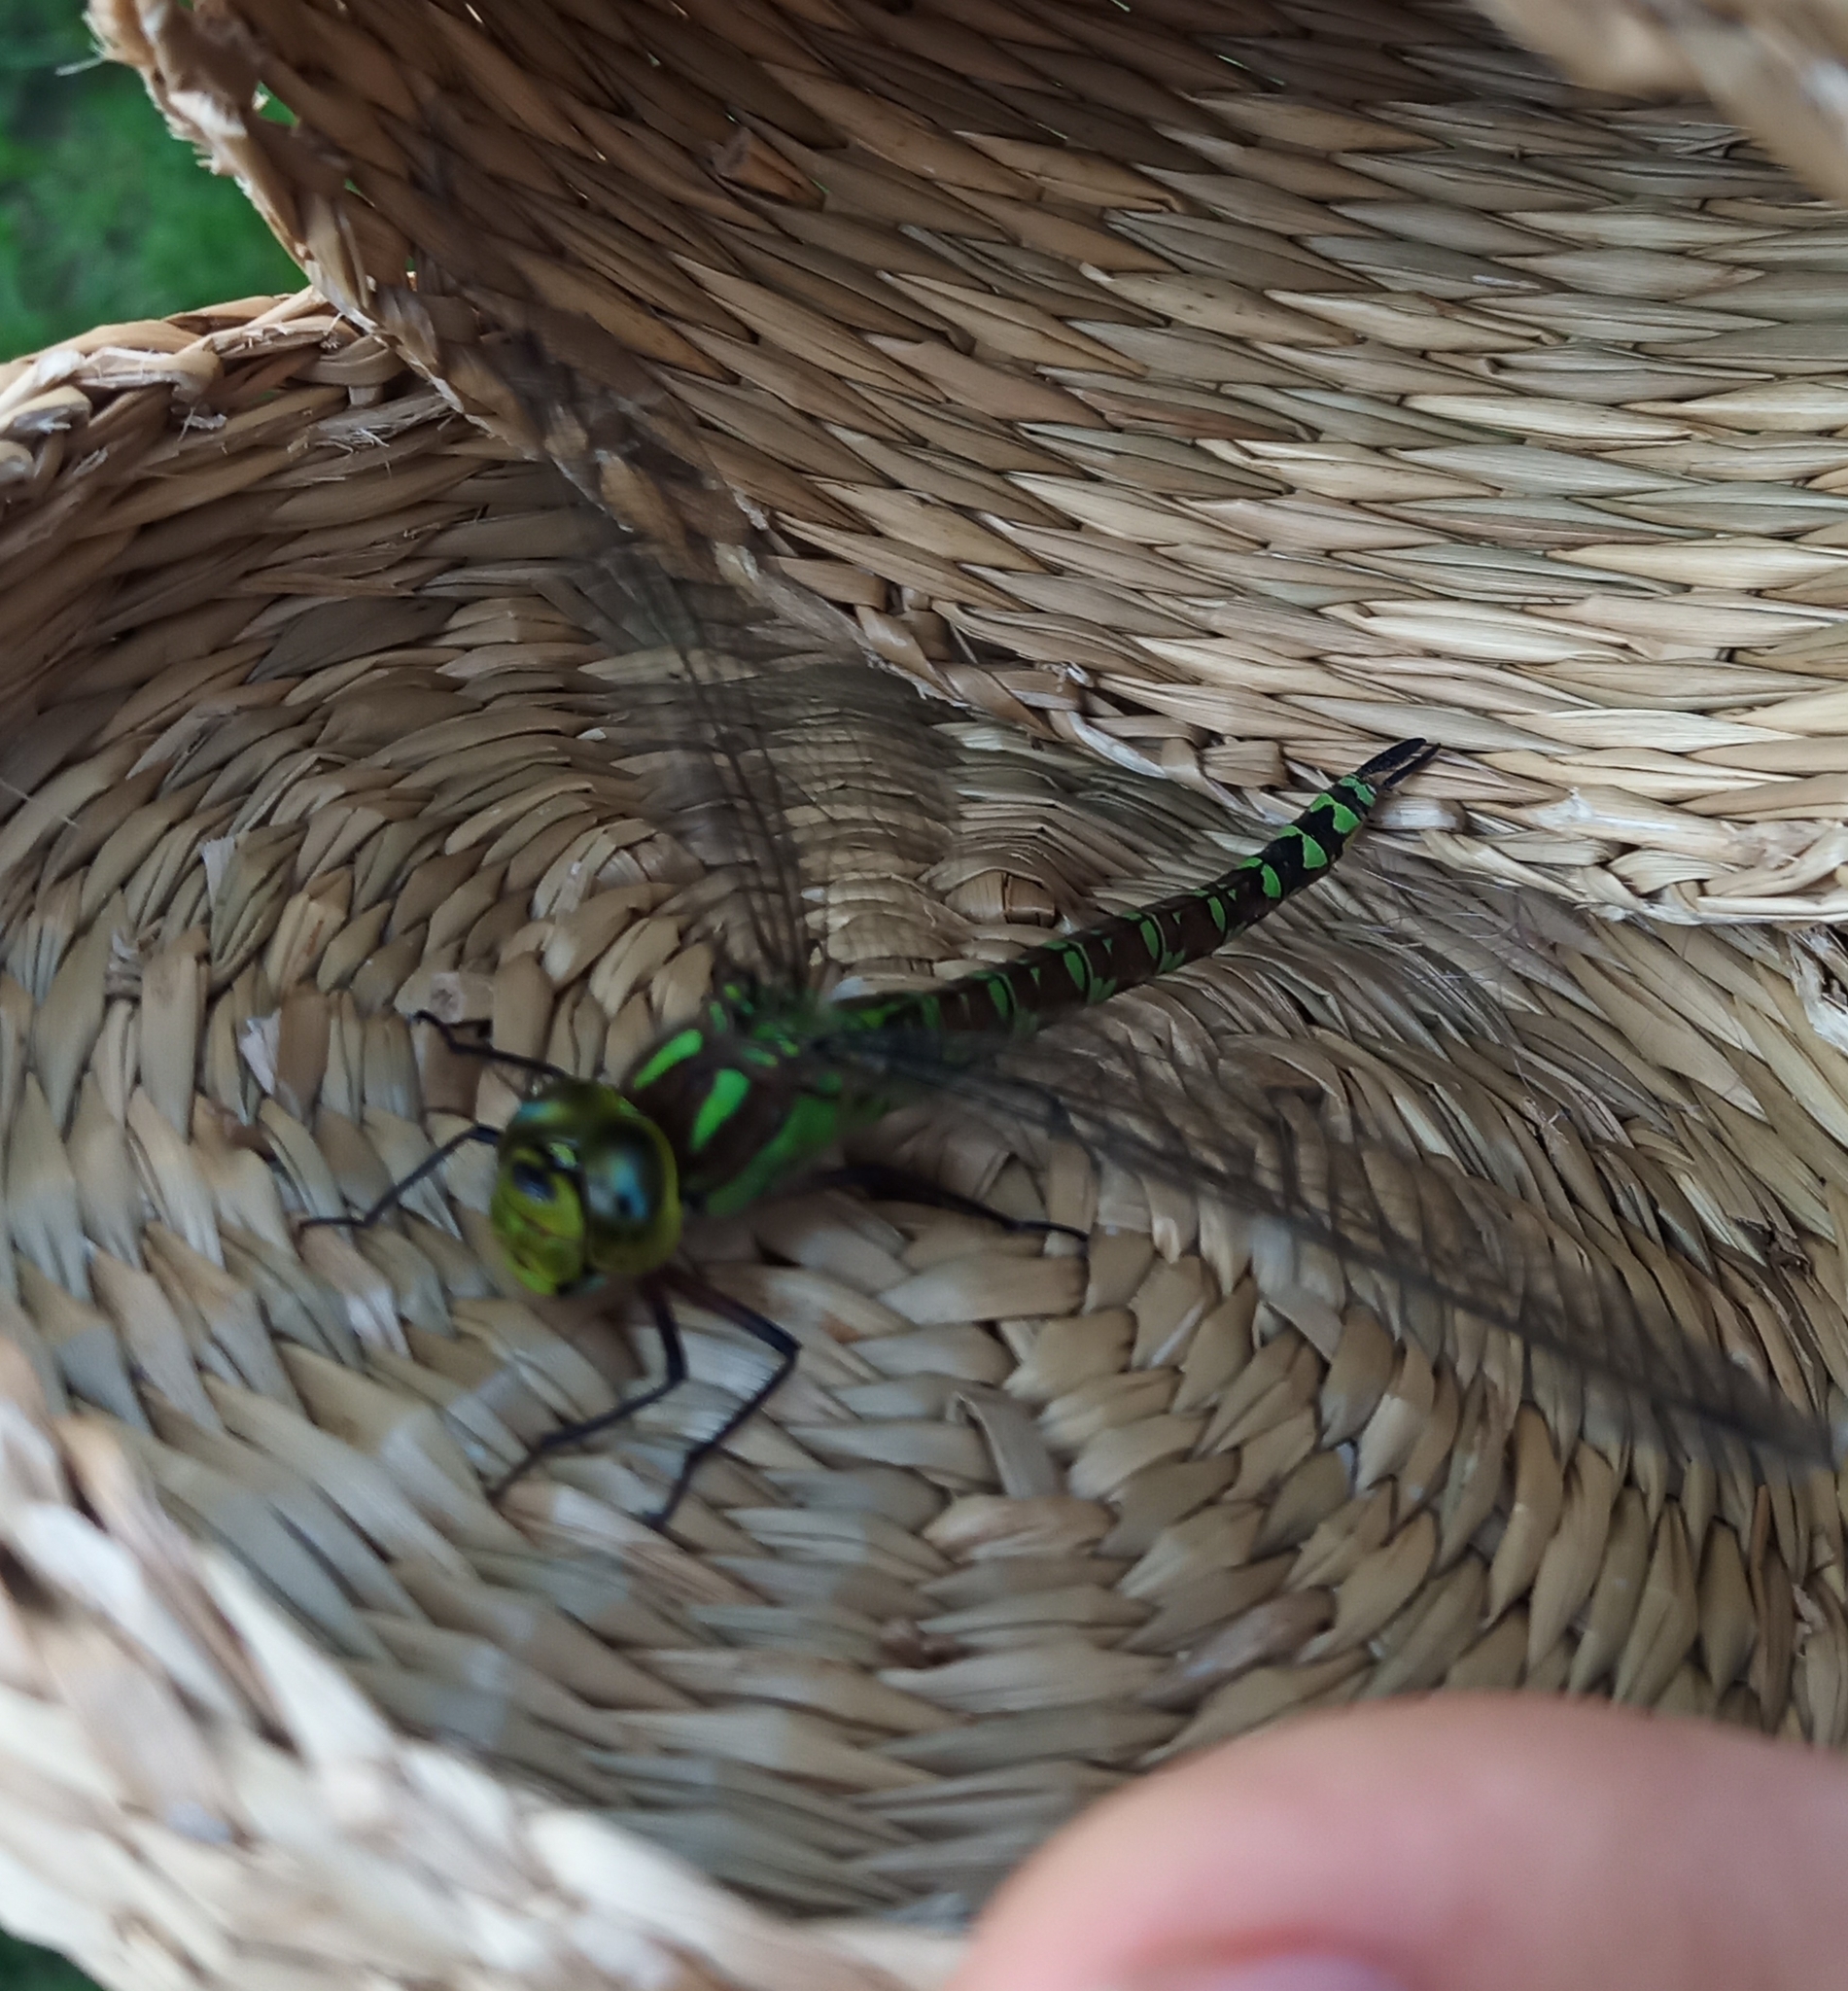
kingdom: Animalia
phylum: Arthropoda
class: Insecta
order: Odonata
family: Aeshnidae
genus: Aeshna
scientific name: Aeshna cyanea
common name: Southern hawker
